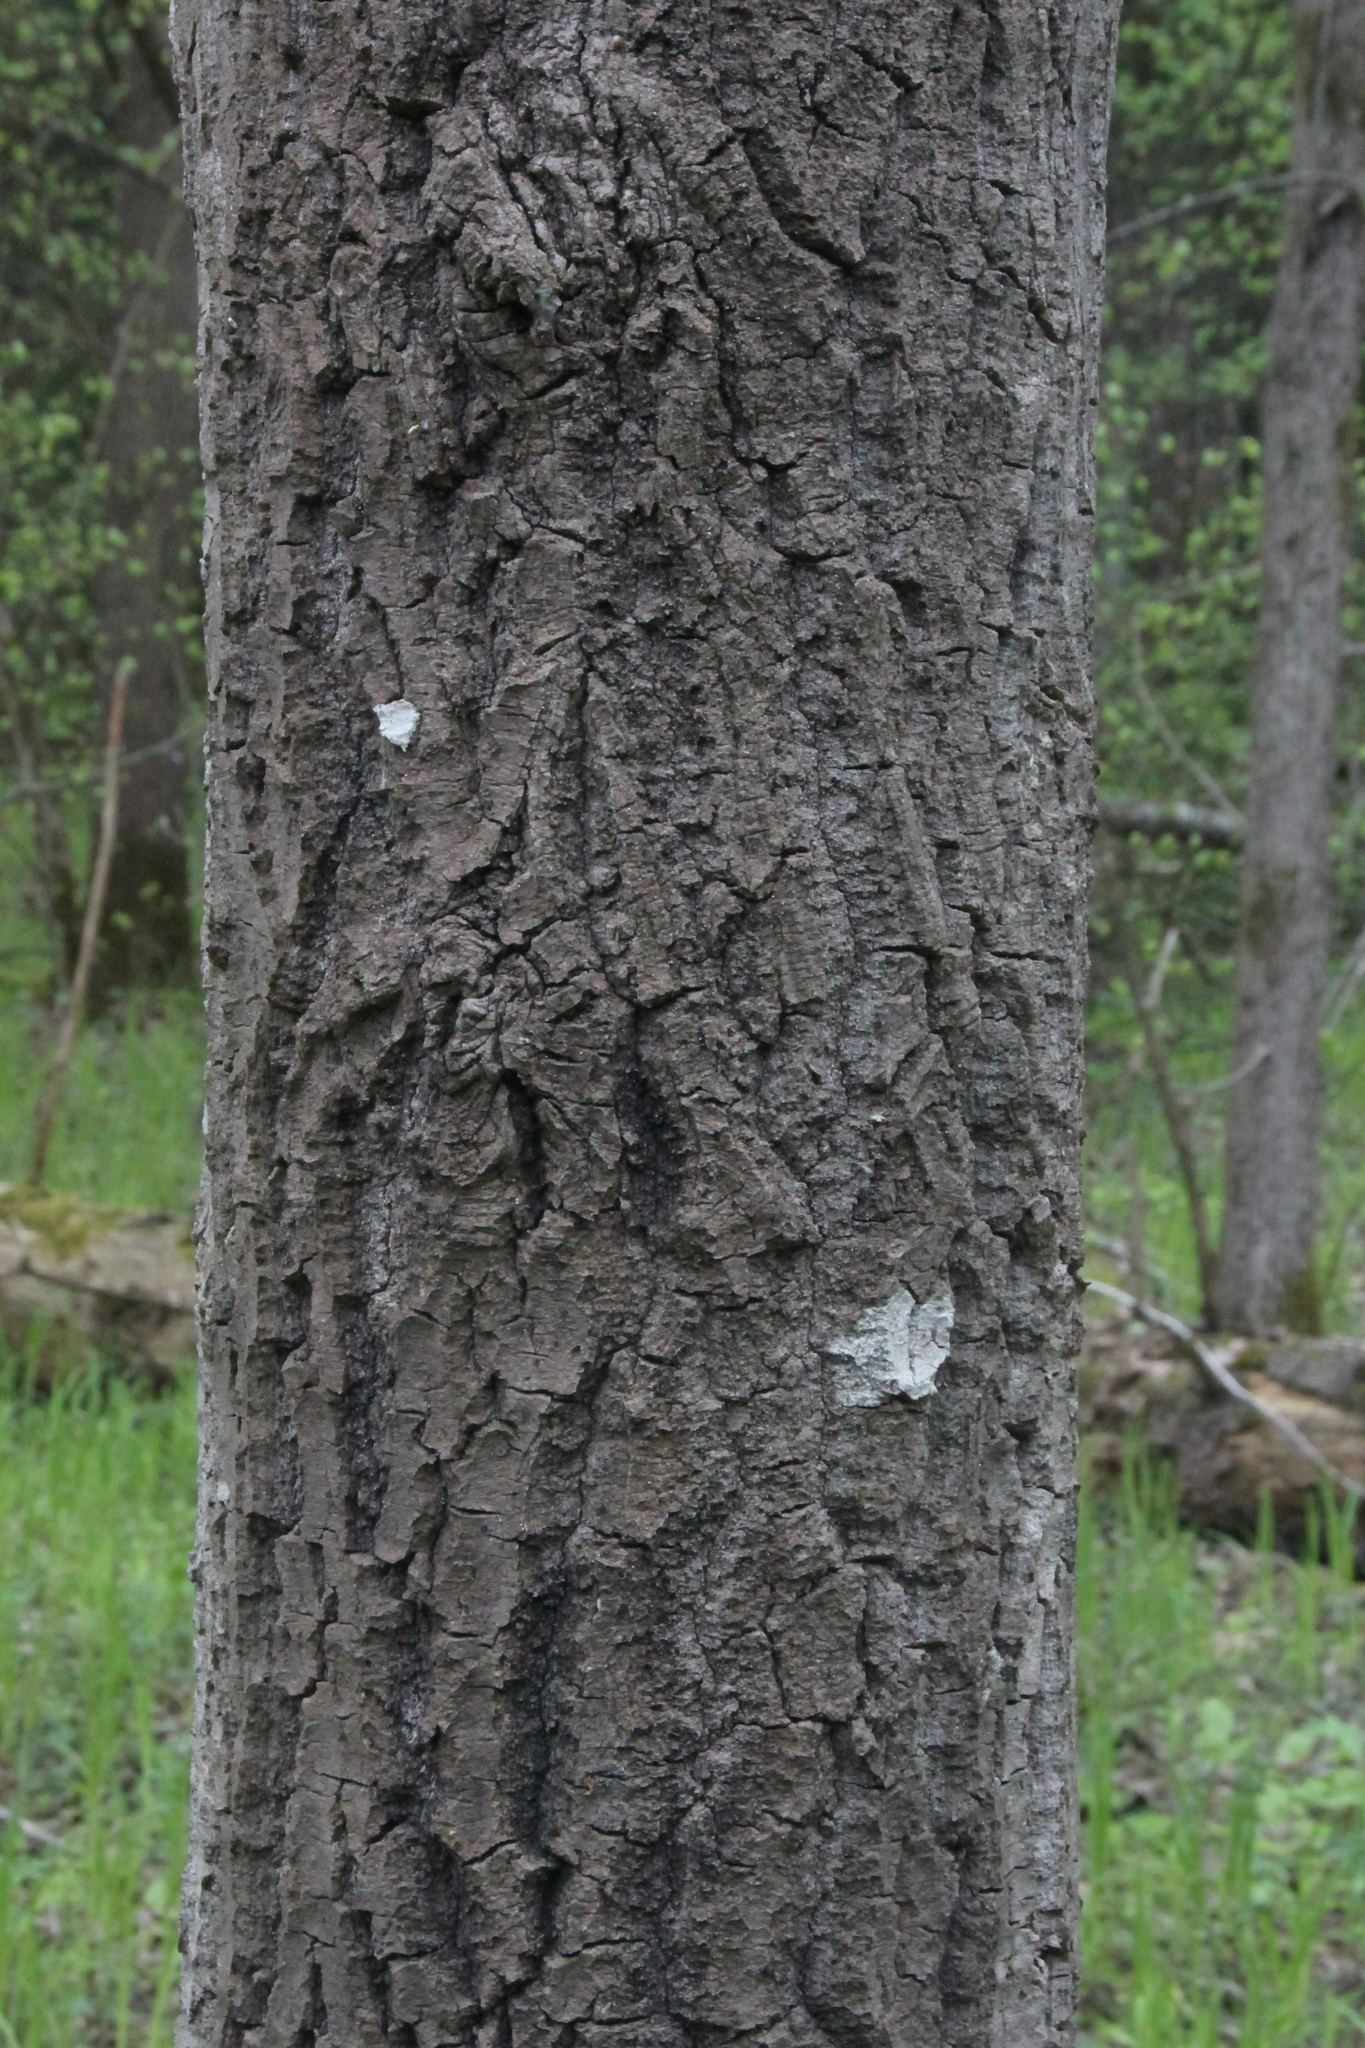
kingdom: Plantae
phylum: Tracheophyta
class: Magnoliopsida
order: Malpighiales
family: Salicaceae
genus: Populus
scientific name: Populus tremula
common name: European aspen
